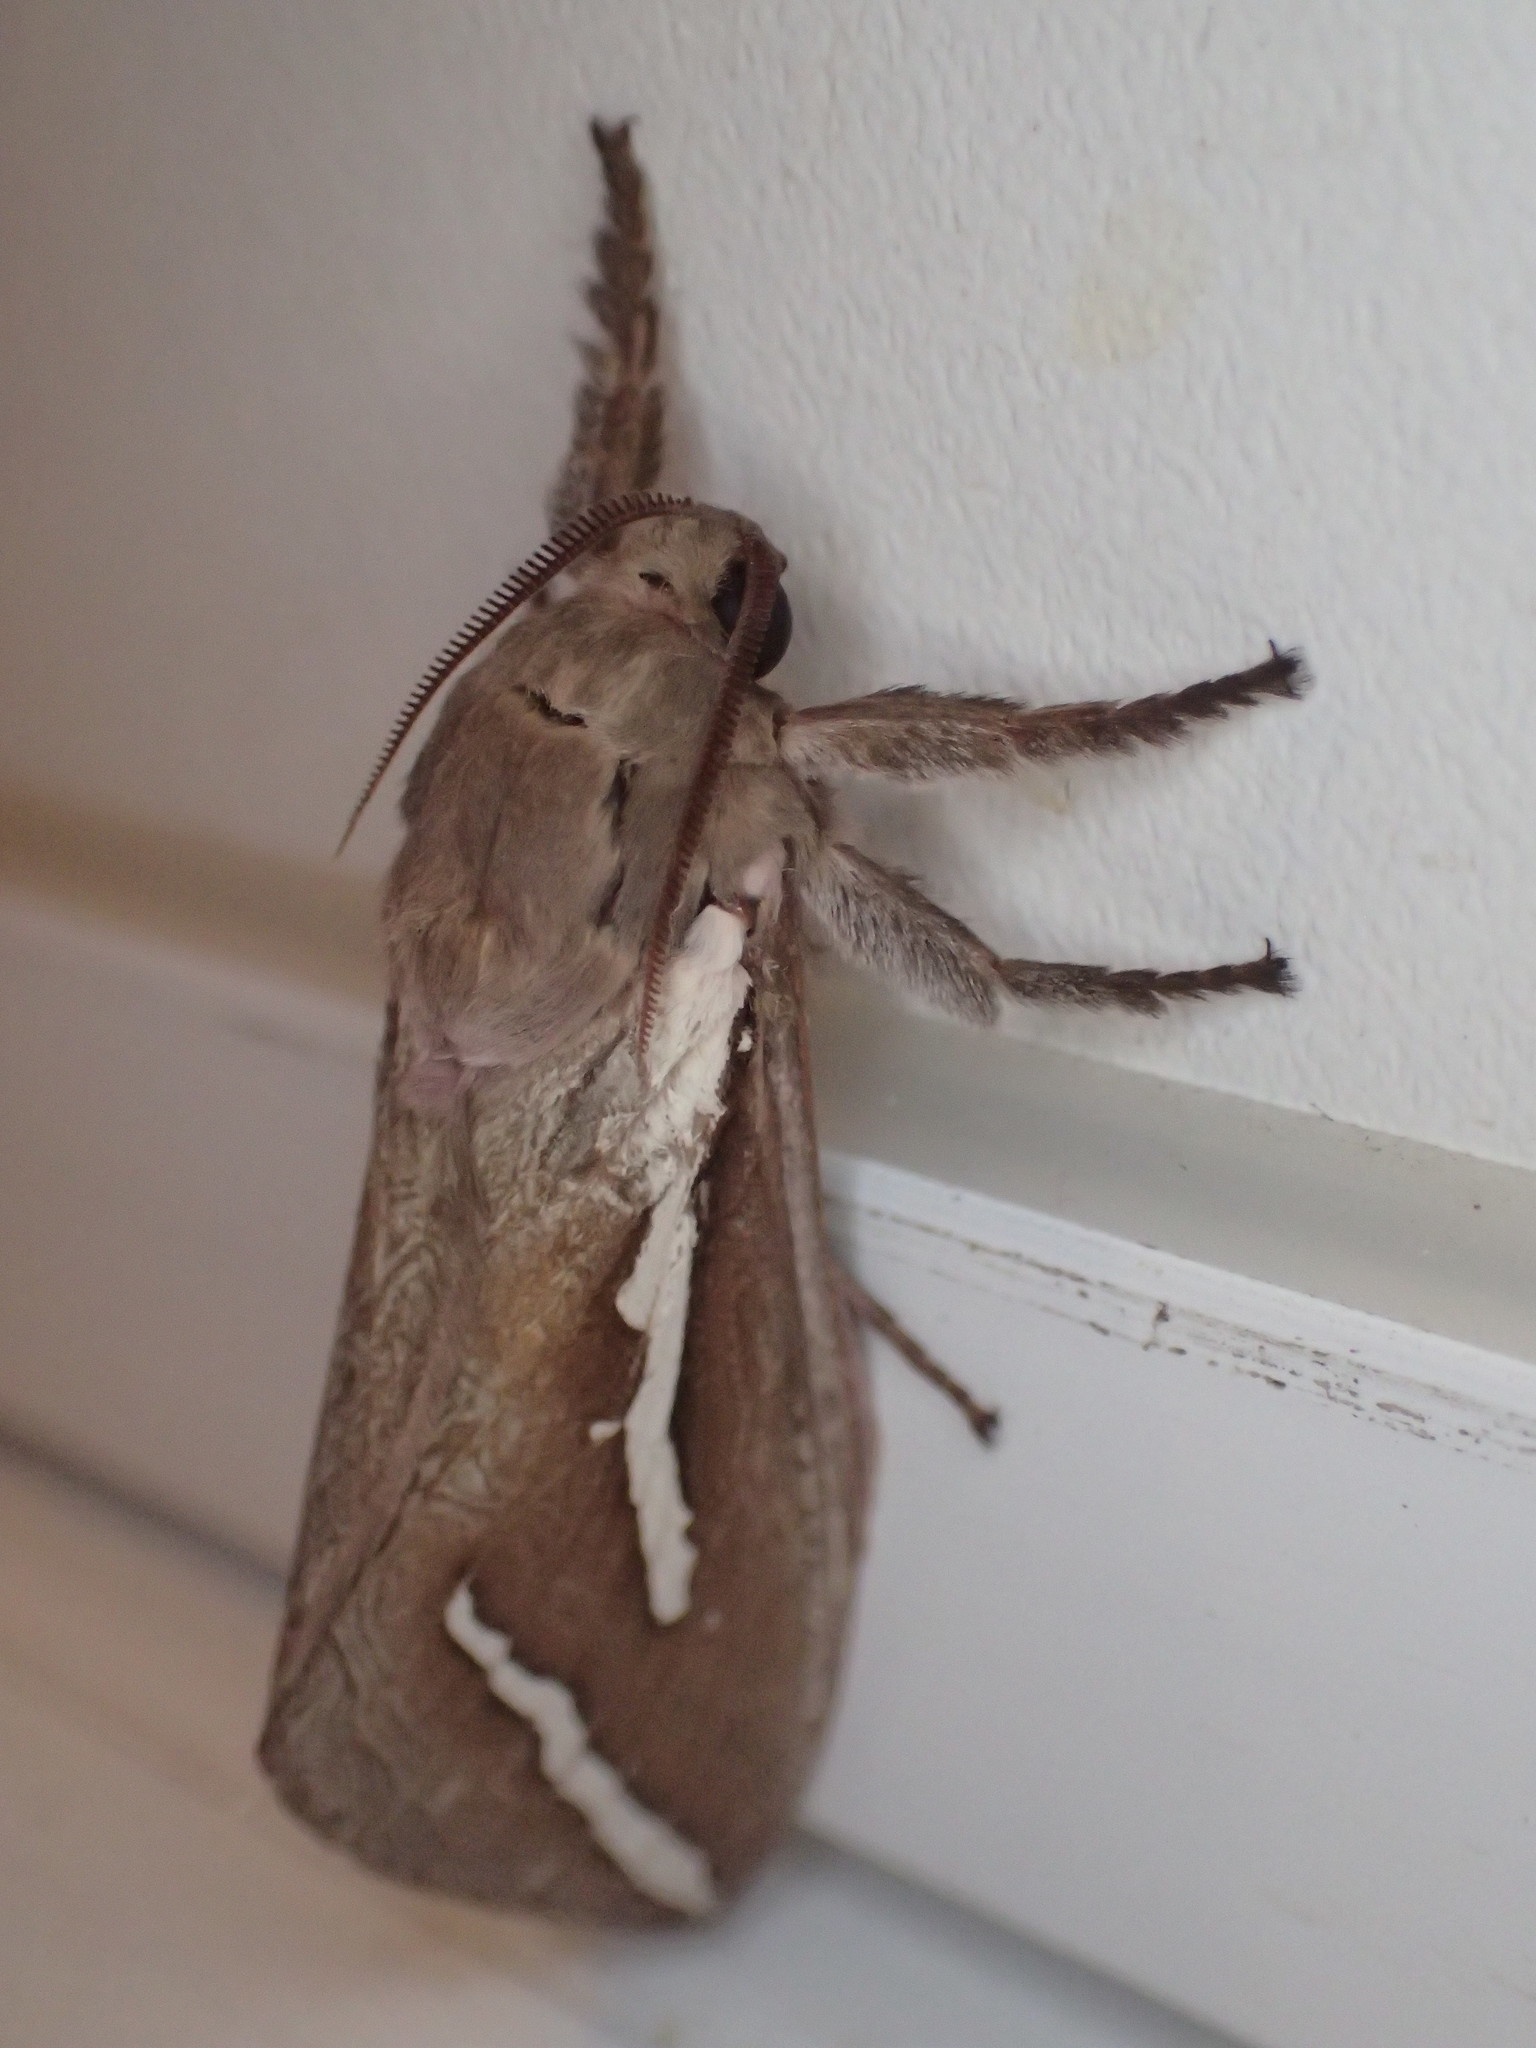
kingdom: Animalia
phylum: Arthropoda
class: Insecta
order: Lepidoptera
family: Hepialidae
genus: Abantiades
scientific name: Abantiades latipennis
